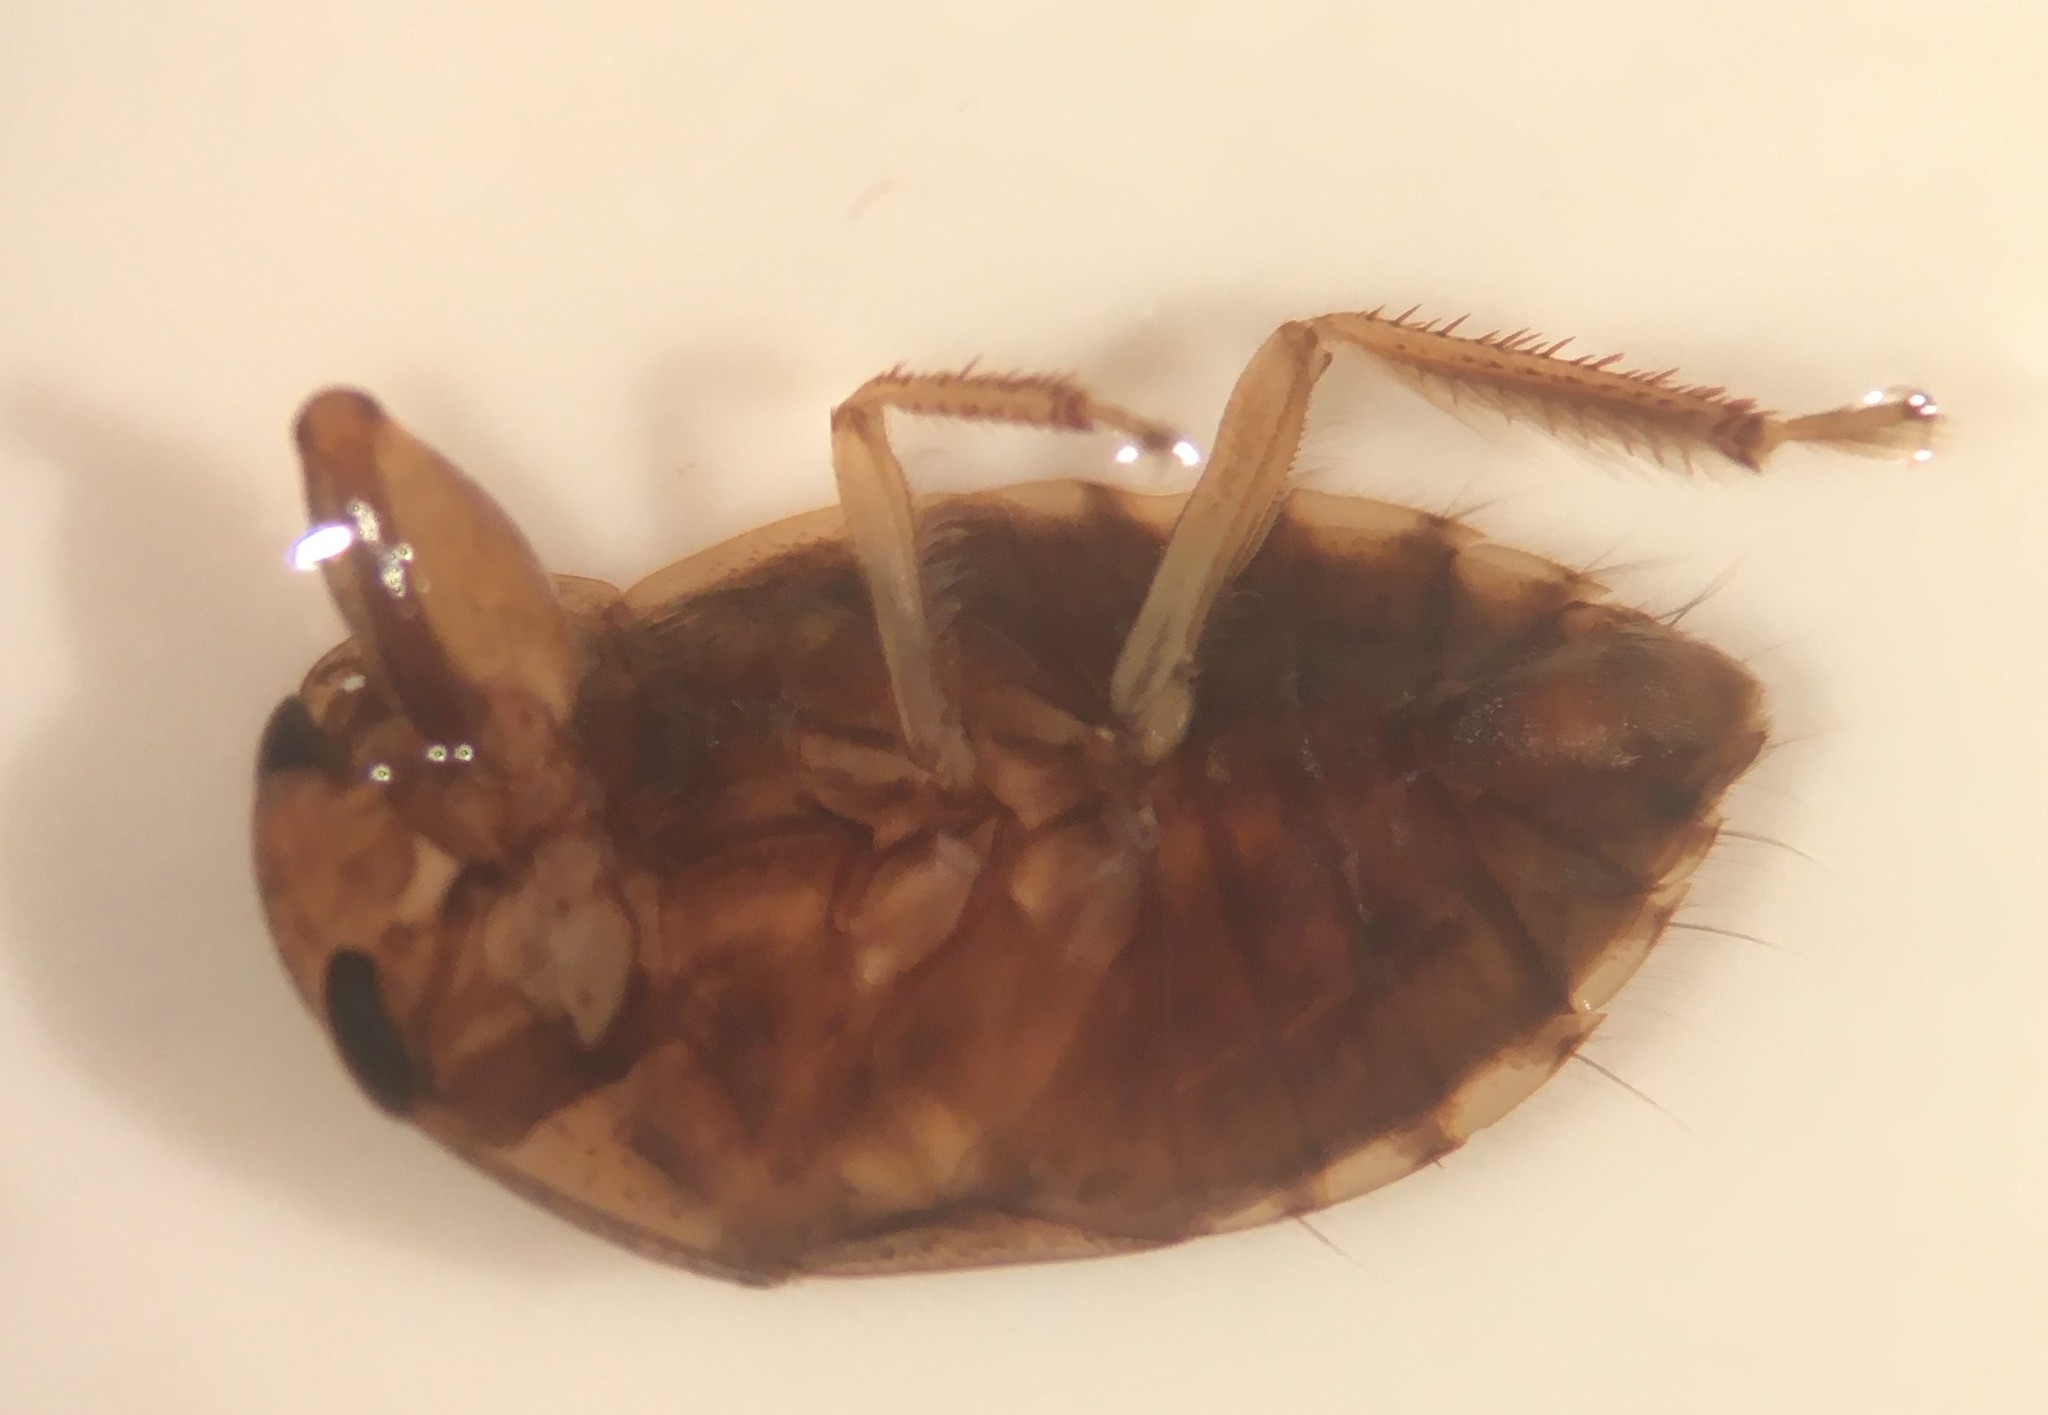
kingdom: Animalia
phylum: Arthropoda
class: Insecta
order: Hemiptera
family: Naucoridae
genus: Pelocoris
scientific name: Pelocoris balius
